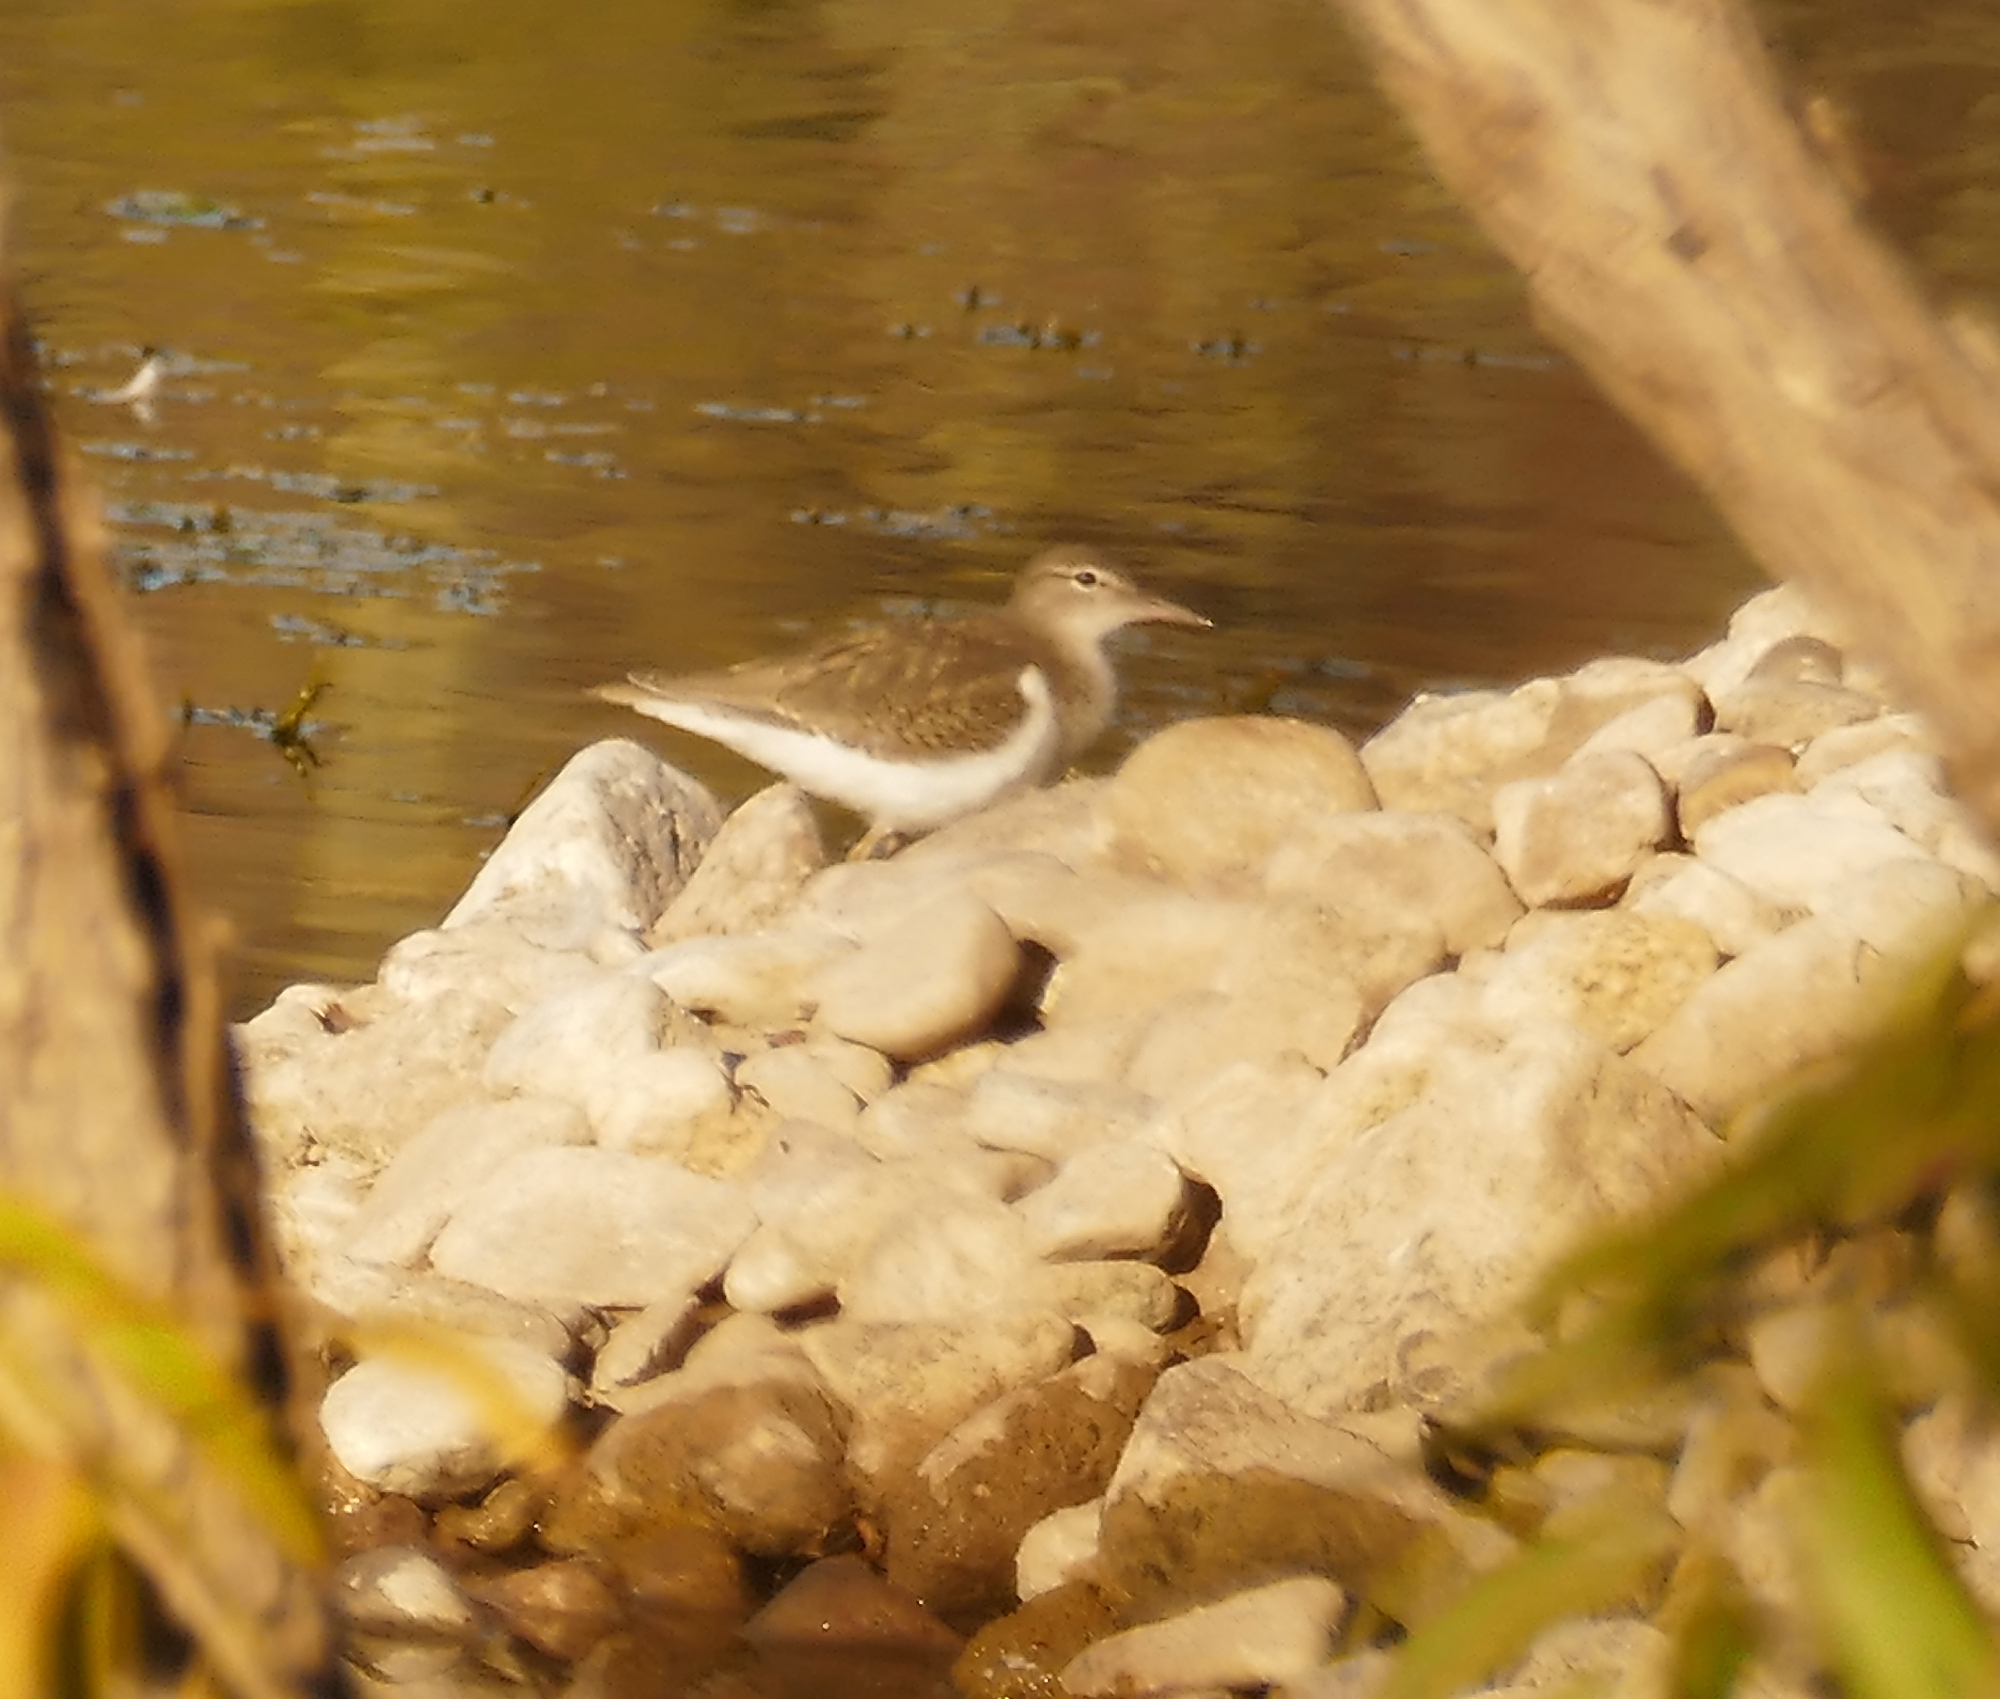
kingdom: Animalia
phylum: Chordata
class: Aves
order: Charadriiformes
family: Scolopacidae
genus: Actitis
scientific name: Actitis macularius
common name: Spotted sandpiper
